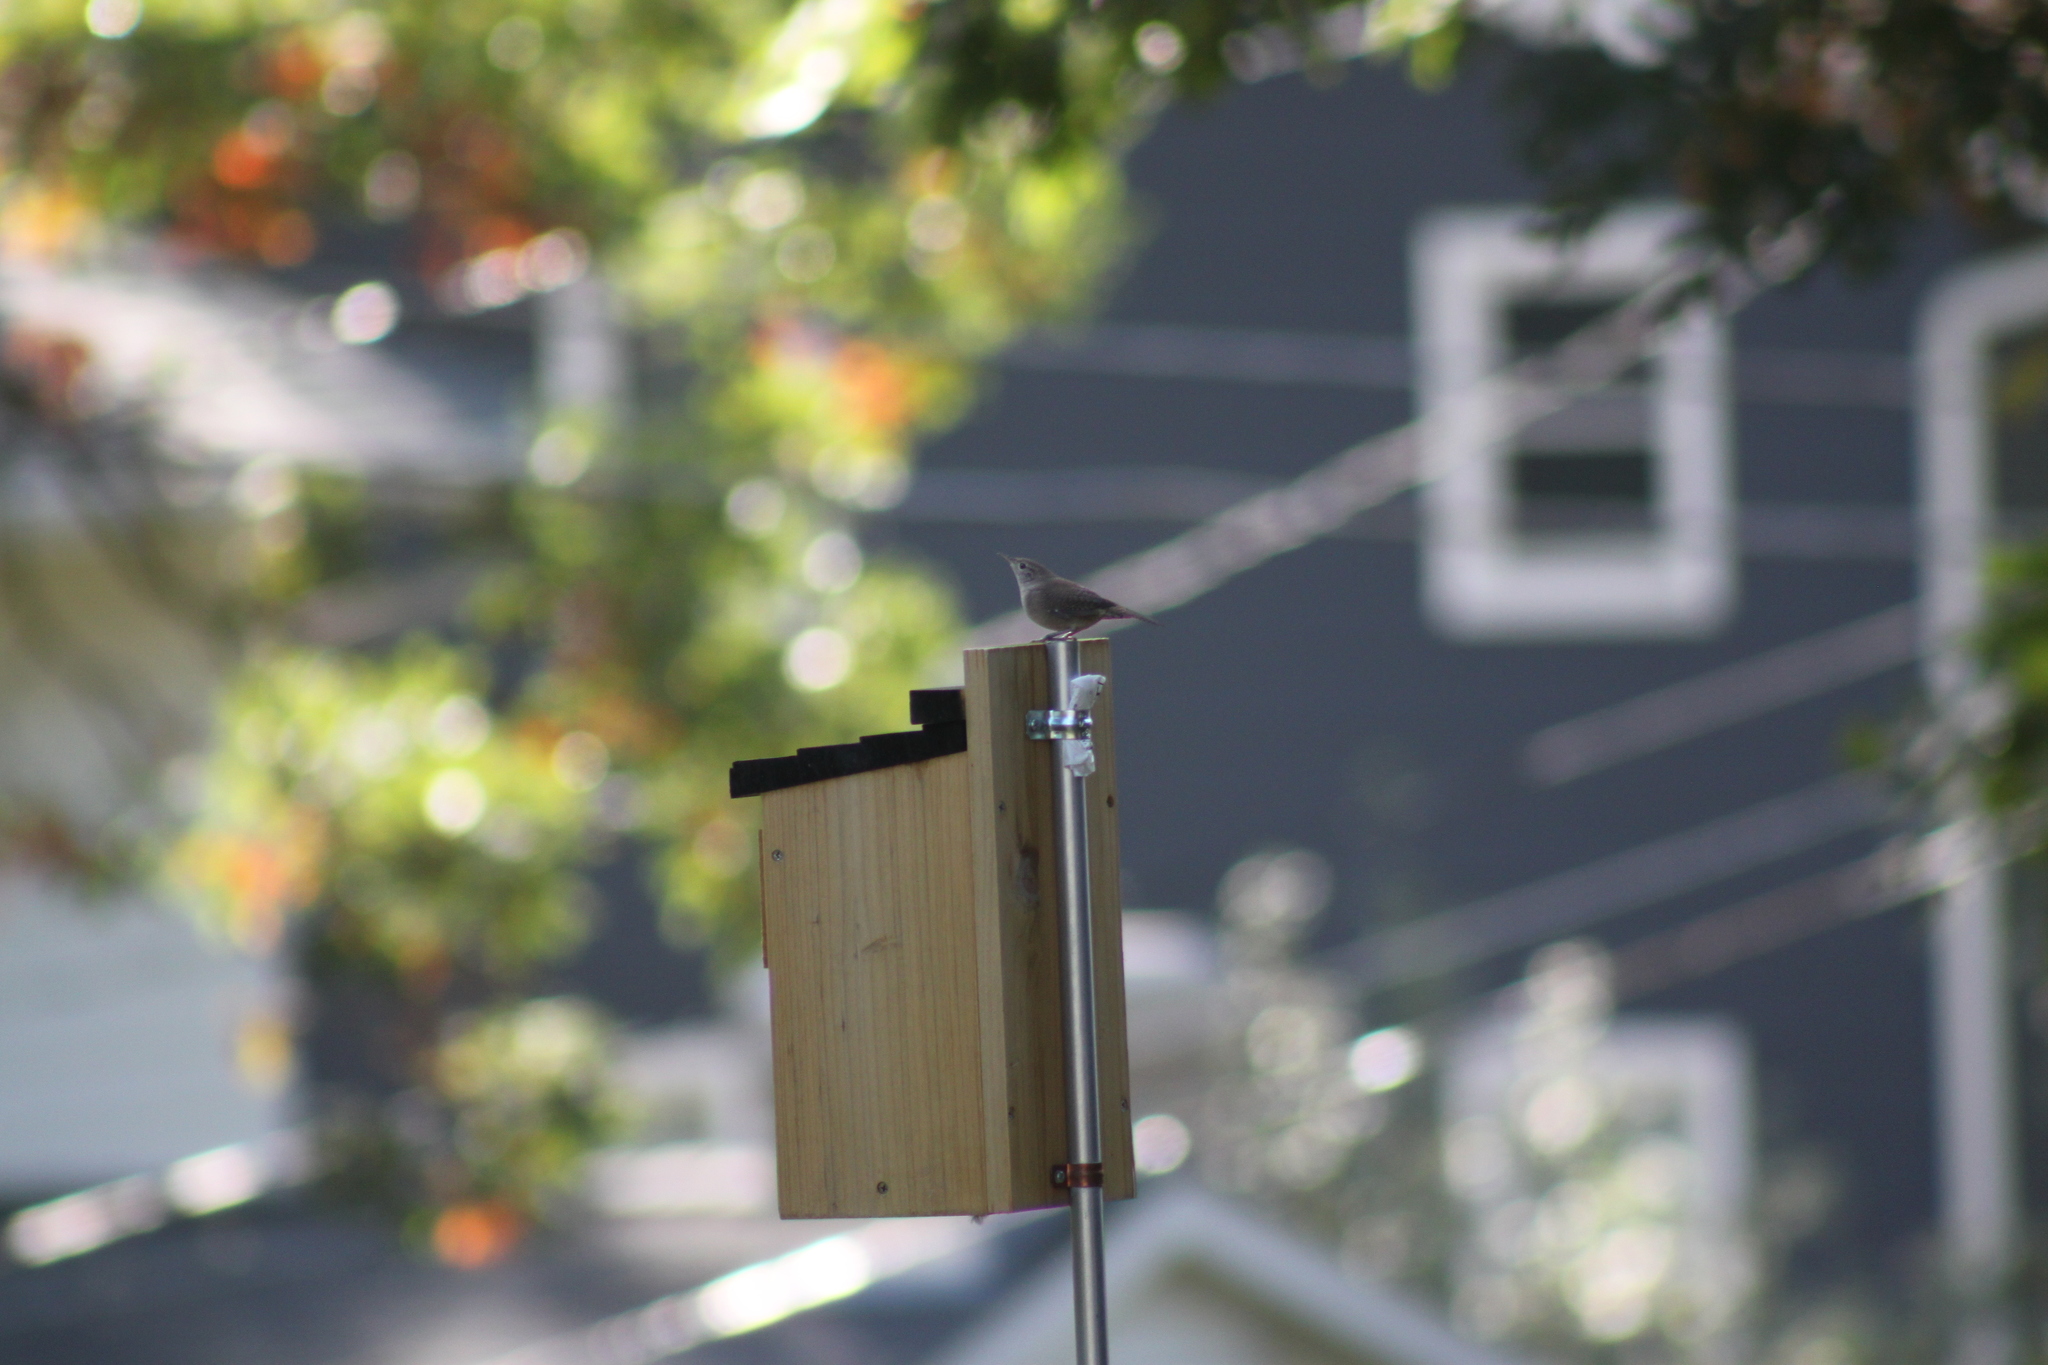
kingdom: Animalia
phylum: Chordata
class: Aves
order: Passeriformes
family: Troglodytidae
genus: Troglodytes
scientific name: Troglodytes aedon
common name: House wren
